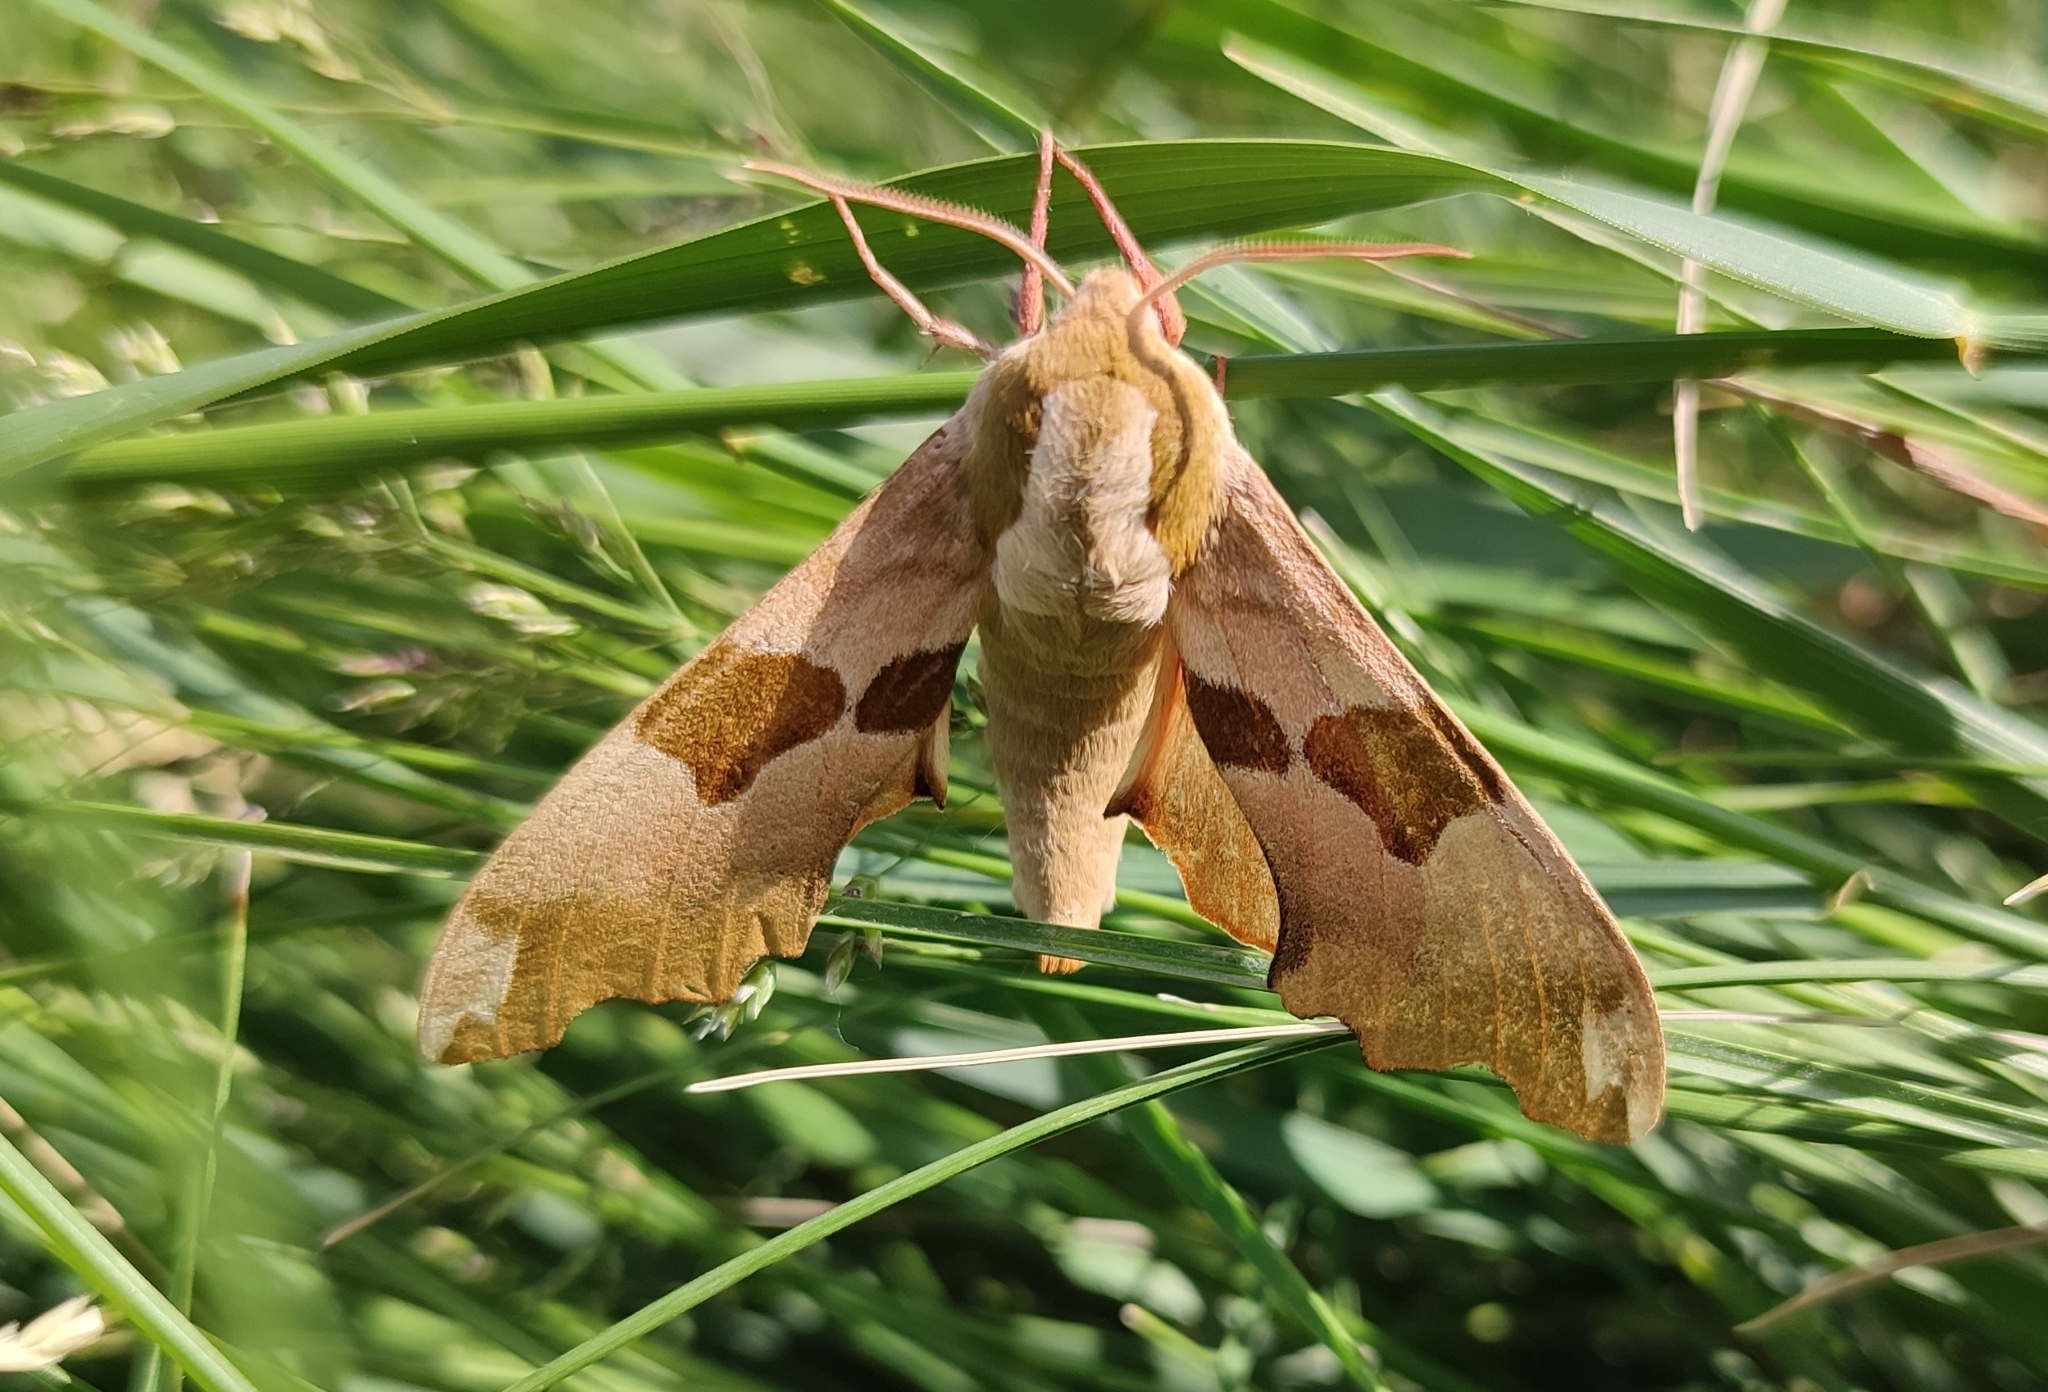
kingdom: Animalia
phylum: Arthropoda
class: Insecta
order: Lepidoptera
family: Sphingidae
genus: Mimas
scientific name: Mimas tiliae
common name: Lime hawk-moth
